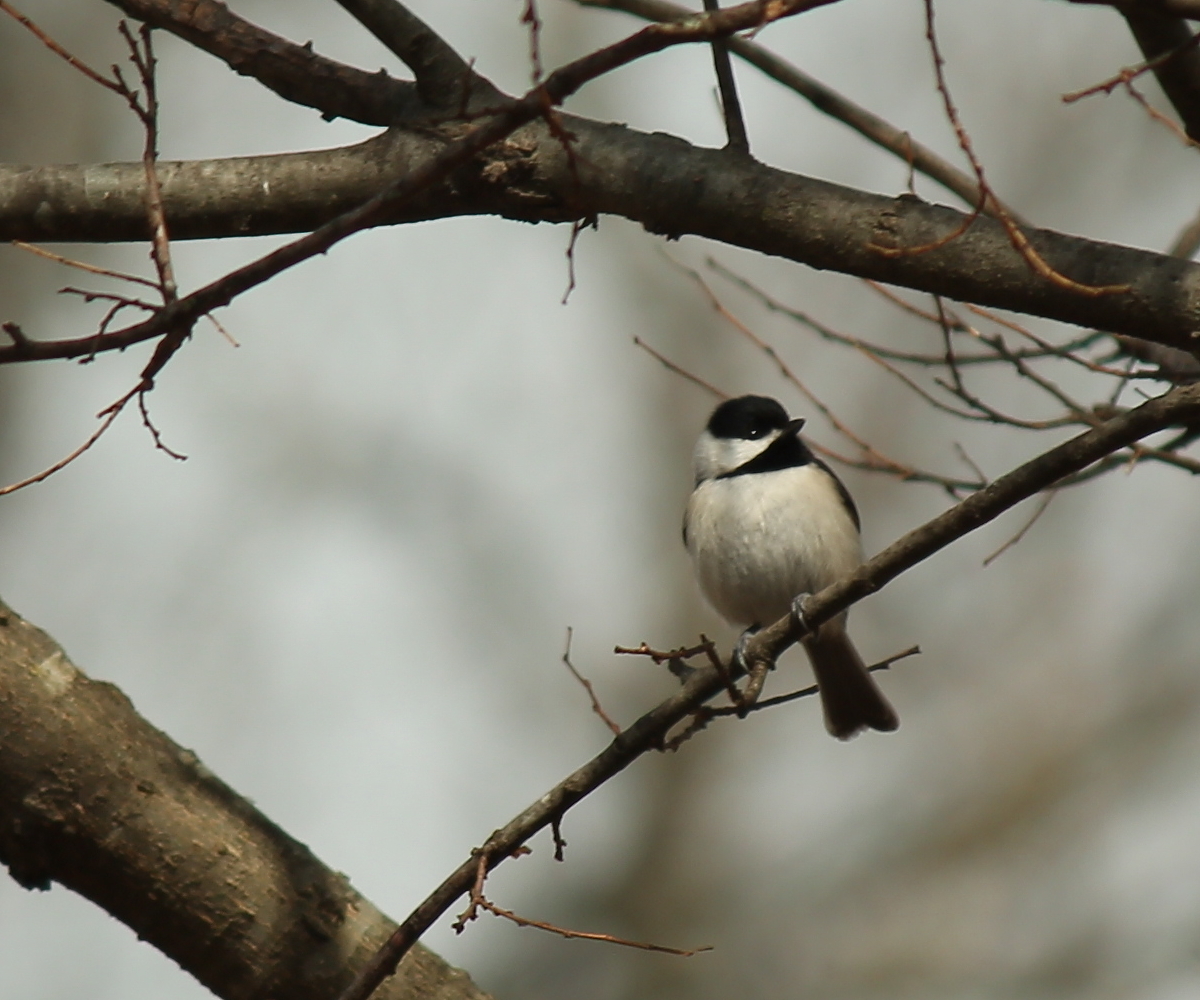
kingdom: Animalia
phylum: Chordata
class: Aves
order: Passeriformes
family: Paridae
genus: Poecile
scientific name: Poecile carolinensis
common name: Carolina chickadee
